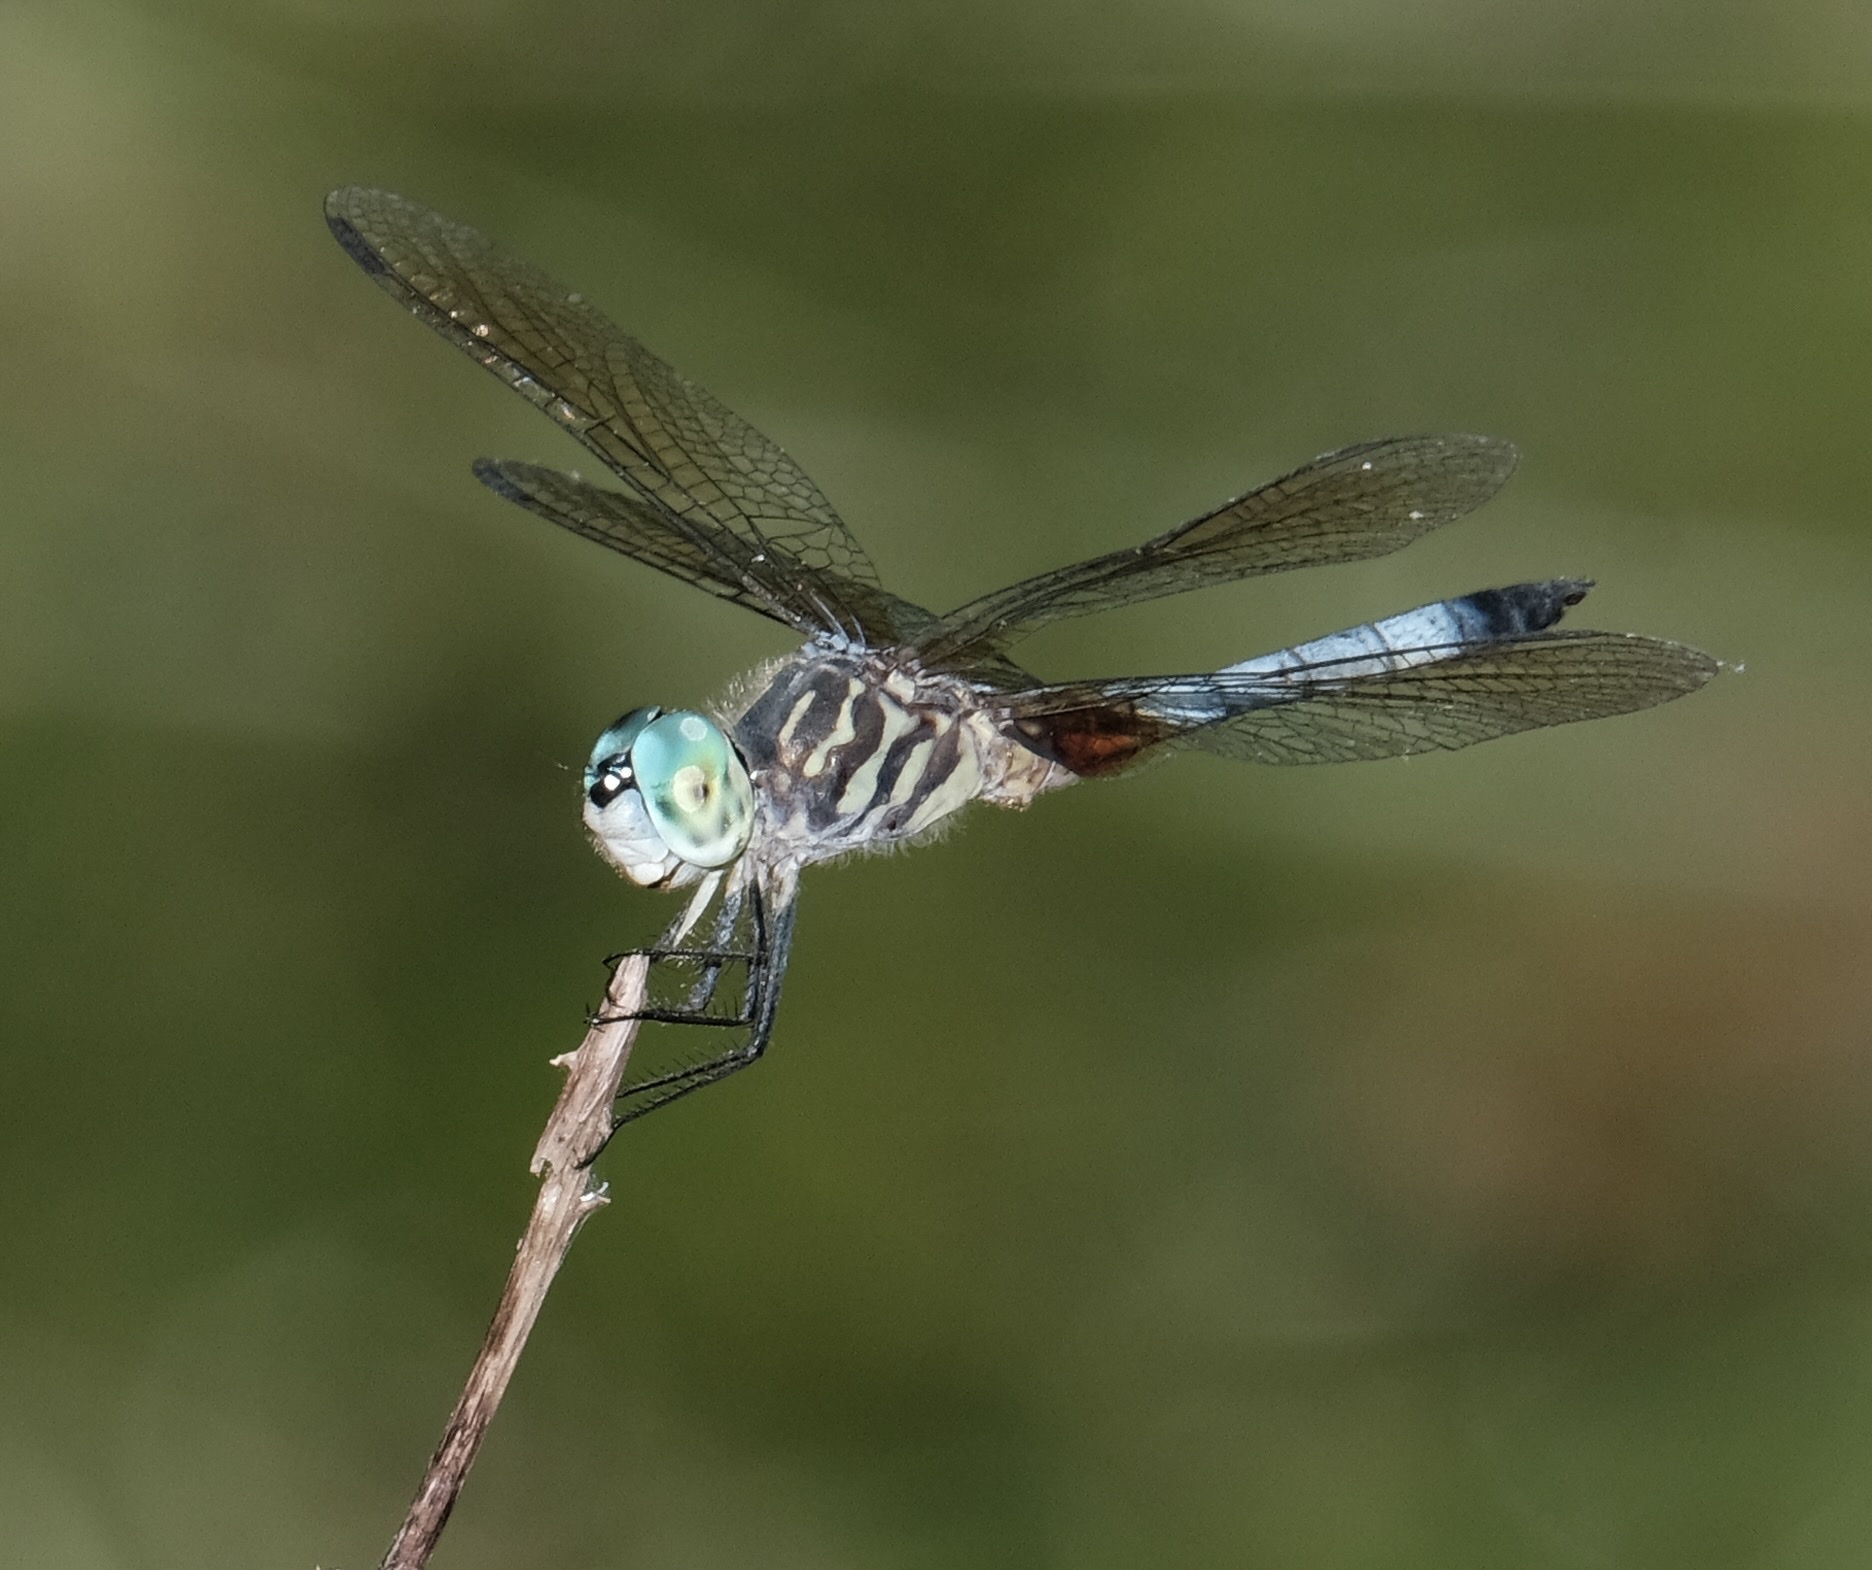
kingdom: Animalia
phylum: Arthropoda
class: Insecta
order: Odonata
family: Libellulidae
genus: Pachydiplax
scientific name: Pachydiplax longipennis
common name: Blue dasher
